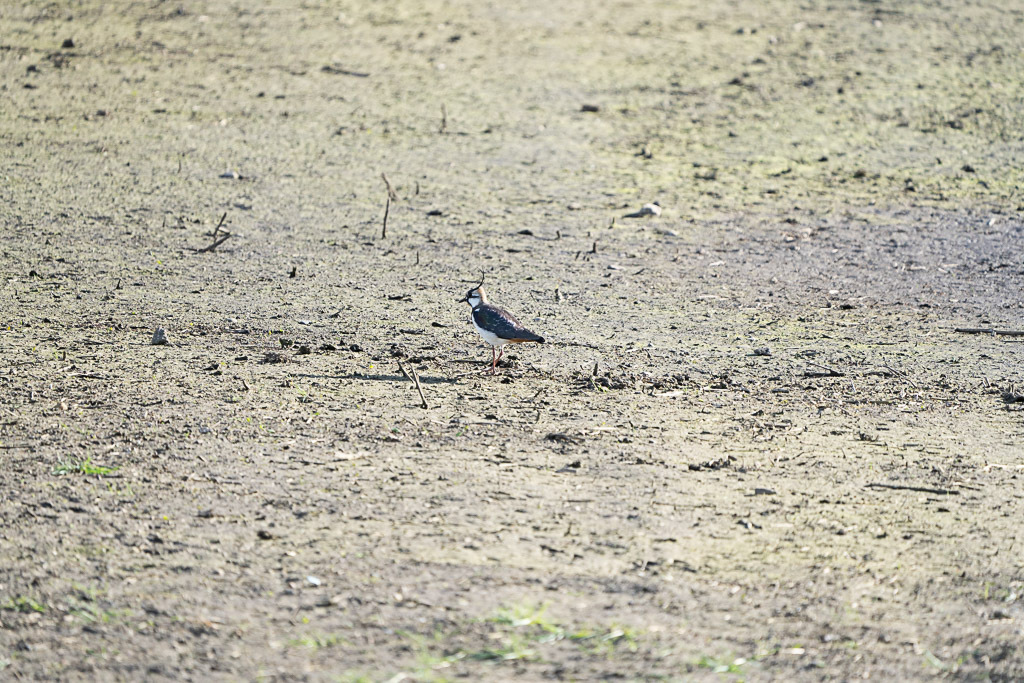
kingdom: Animalia
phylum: Chordata
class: Aves
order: Charadriiformes
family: Charadriidae
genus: Vanellus
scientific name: Vanellus vanellus
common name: Northern lapwing
